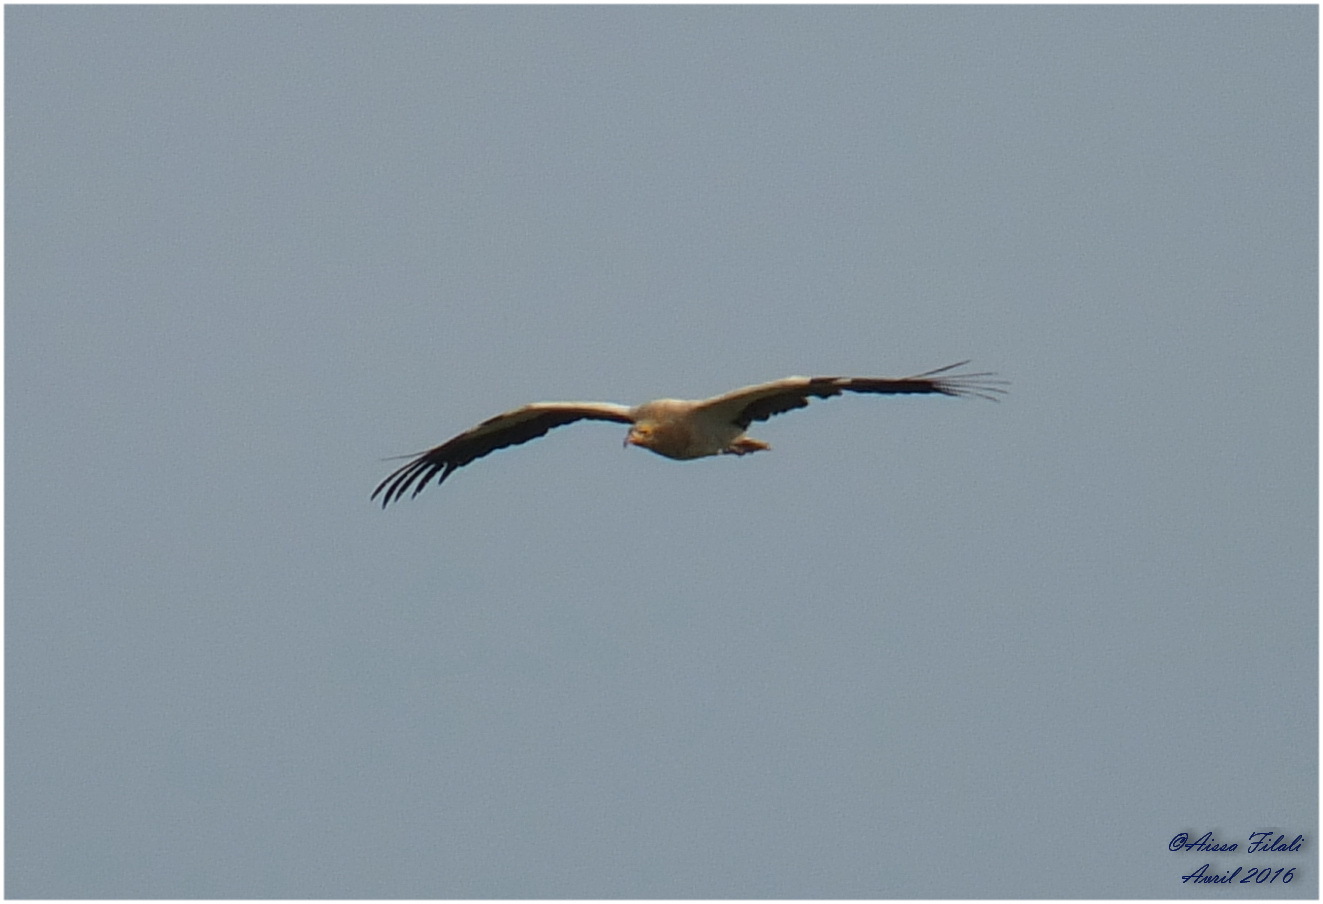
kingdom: Animalia
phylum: Chordata
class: Aves
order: Accipitriformes
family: Accipitridae
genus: Neophron
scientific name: Neophron percnopterus
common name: Egyptian vulture
